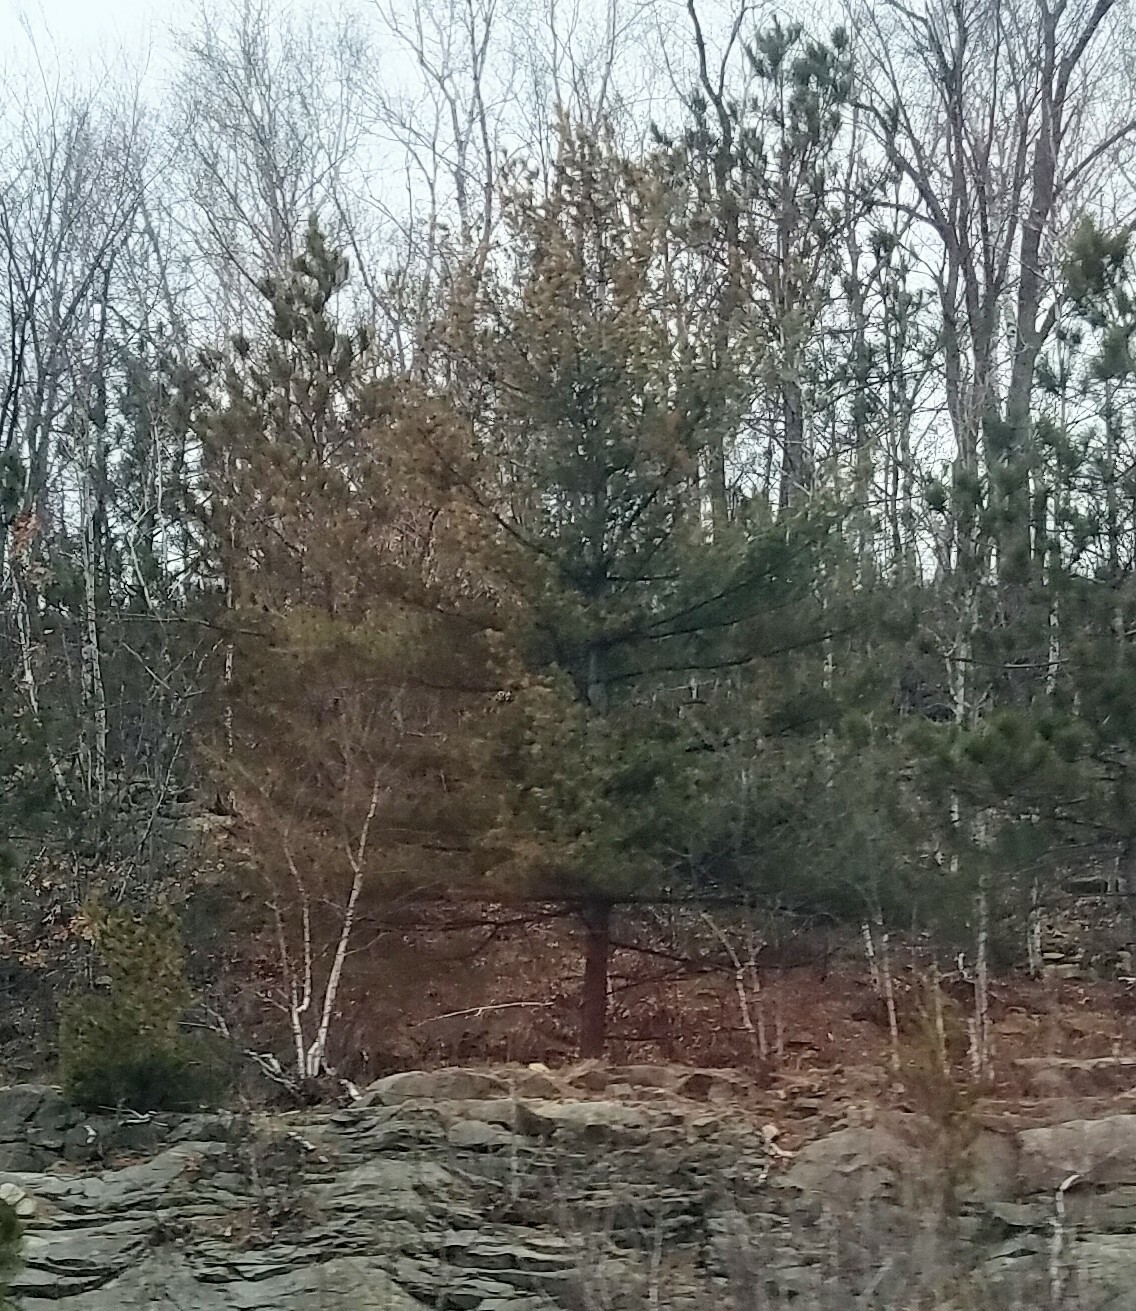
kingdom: Plantae
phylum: Tracheophyta
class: Pinopsida
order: Pinales
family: Pinaceae
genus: Pinus
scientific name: Pinus strobus
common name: Weymouth pine
